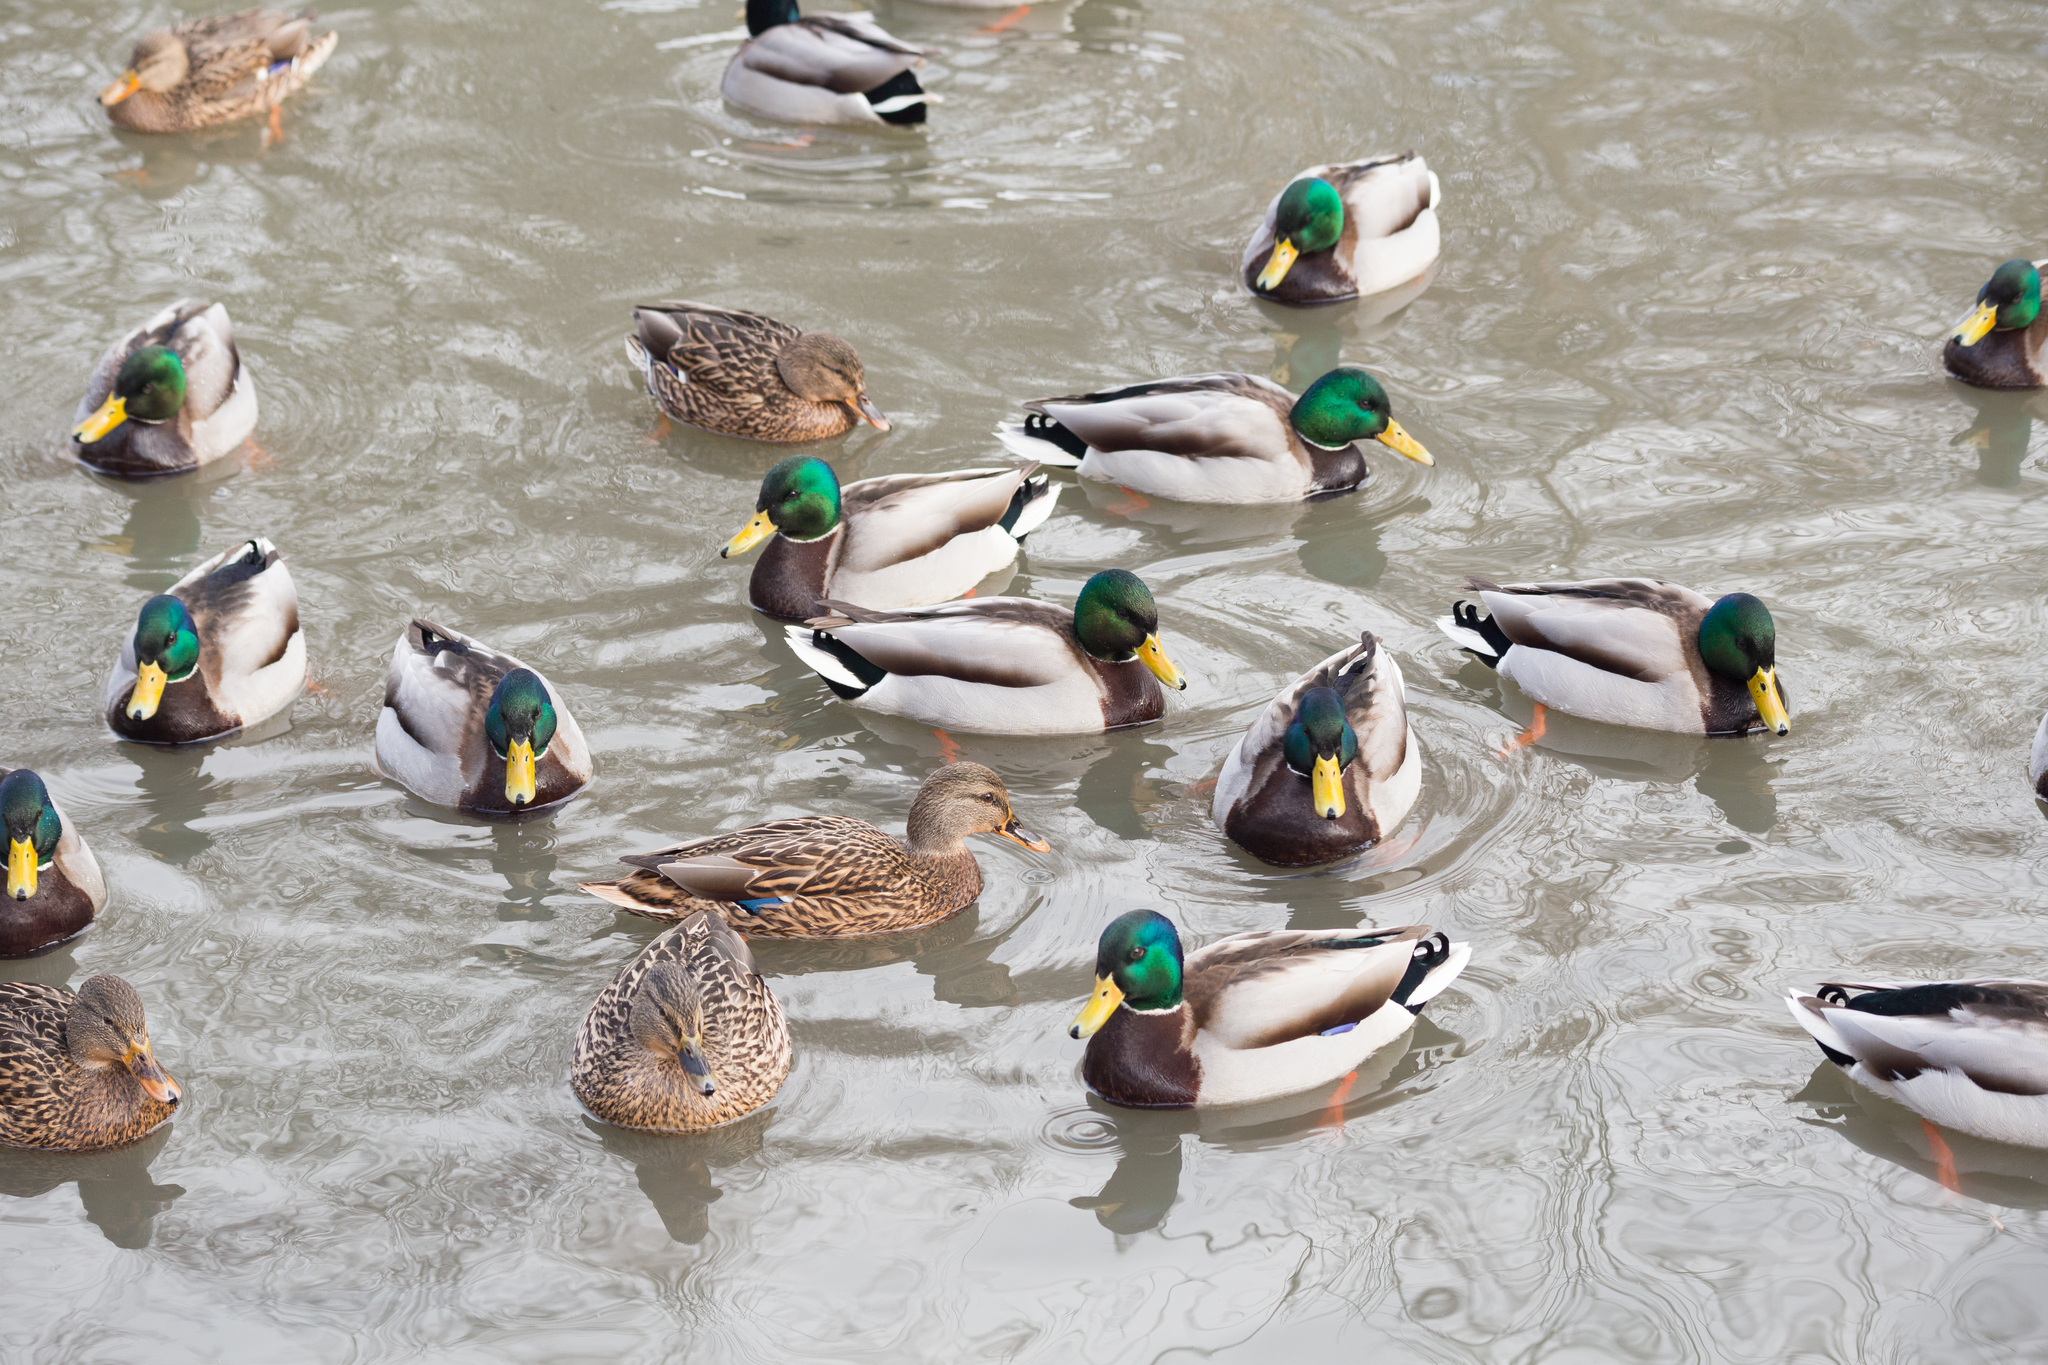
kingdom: Animalia
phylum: Chordata
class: Aves
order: Anseriformes
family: Anatidae
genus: Anas
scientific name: Anas platyrhynchos
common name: Mallard
